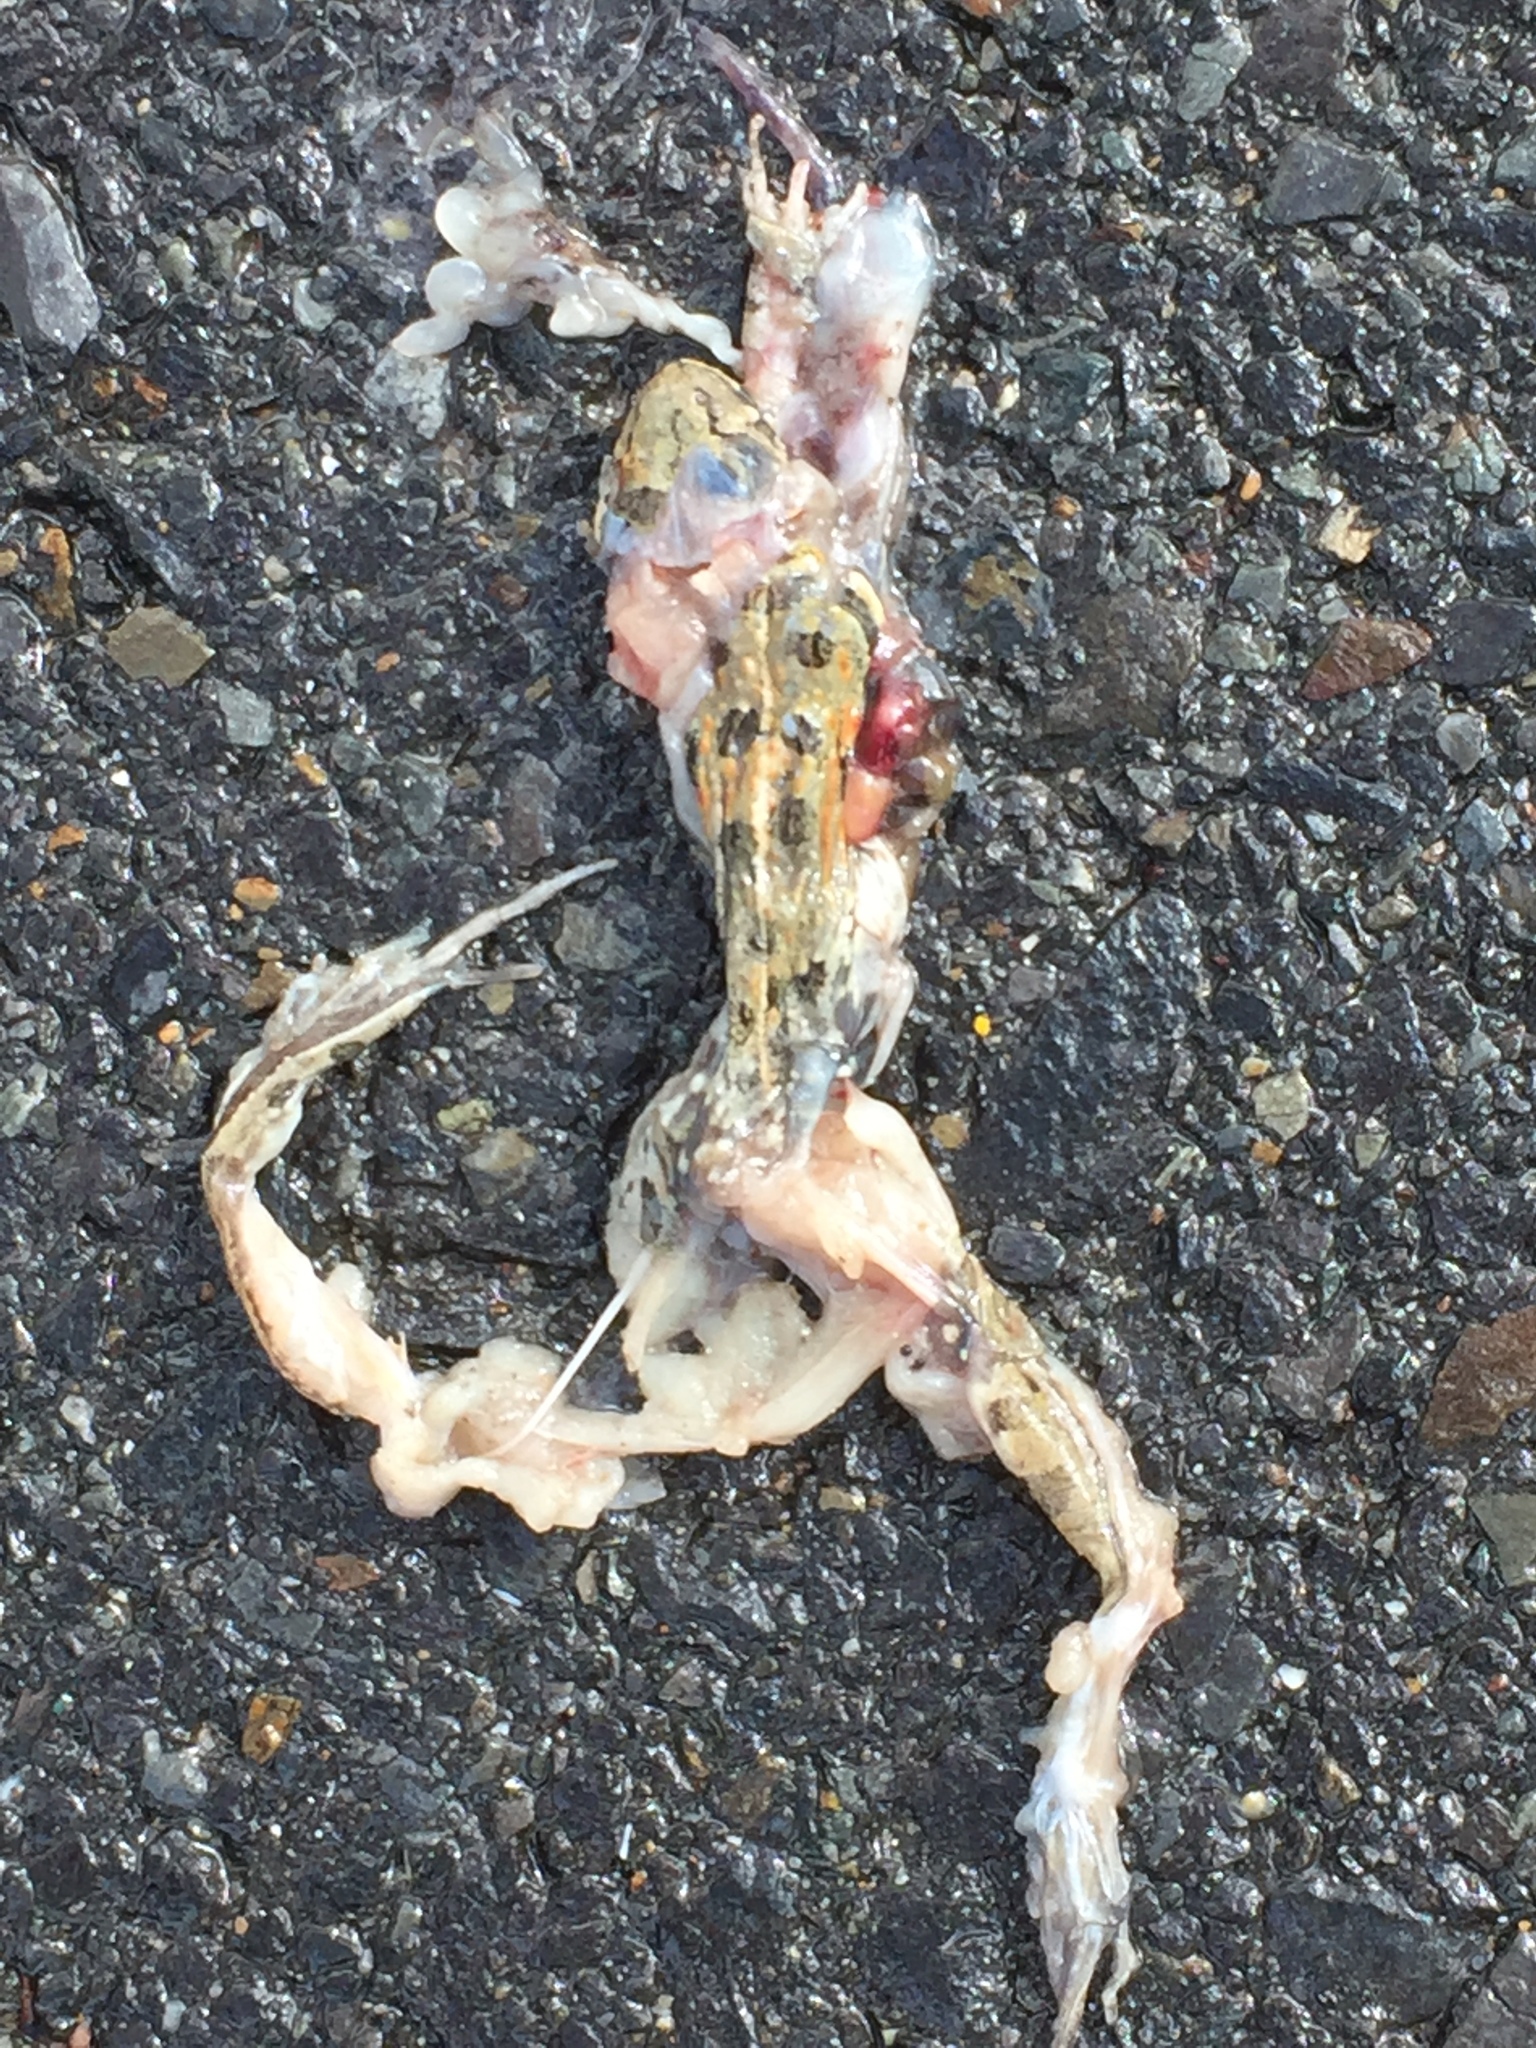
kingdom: Animalia
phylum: Chordata
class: Amphibia
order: Anura
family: Pyxicephalidae
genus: Strongylopus
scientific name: Strongylopus grayii
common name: Gray's stream frog
